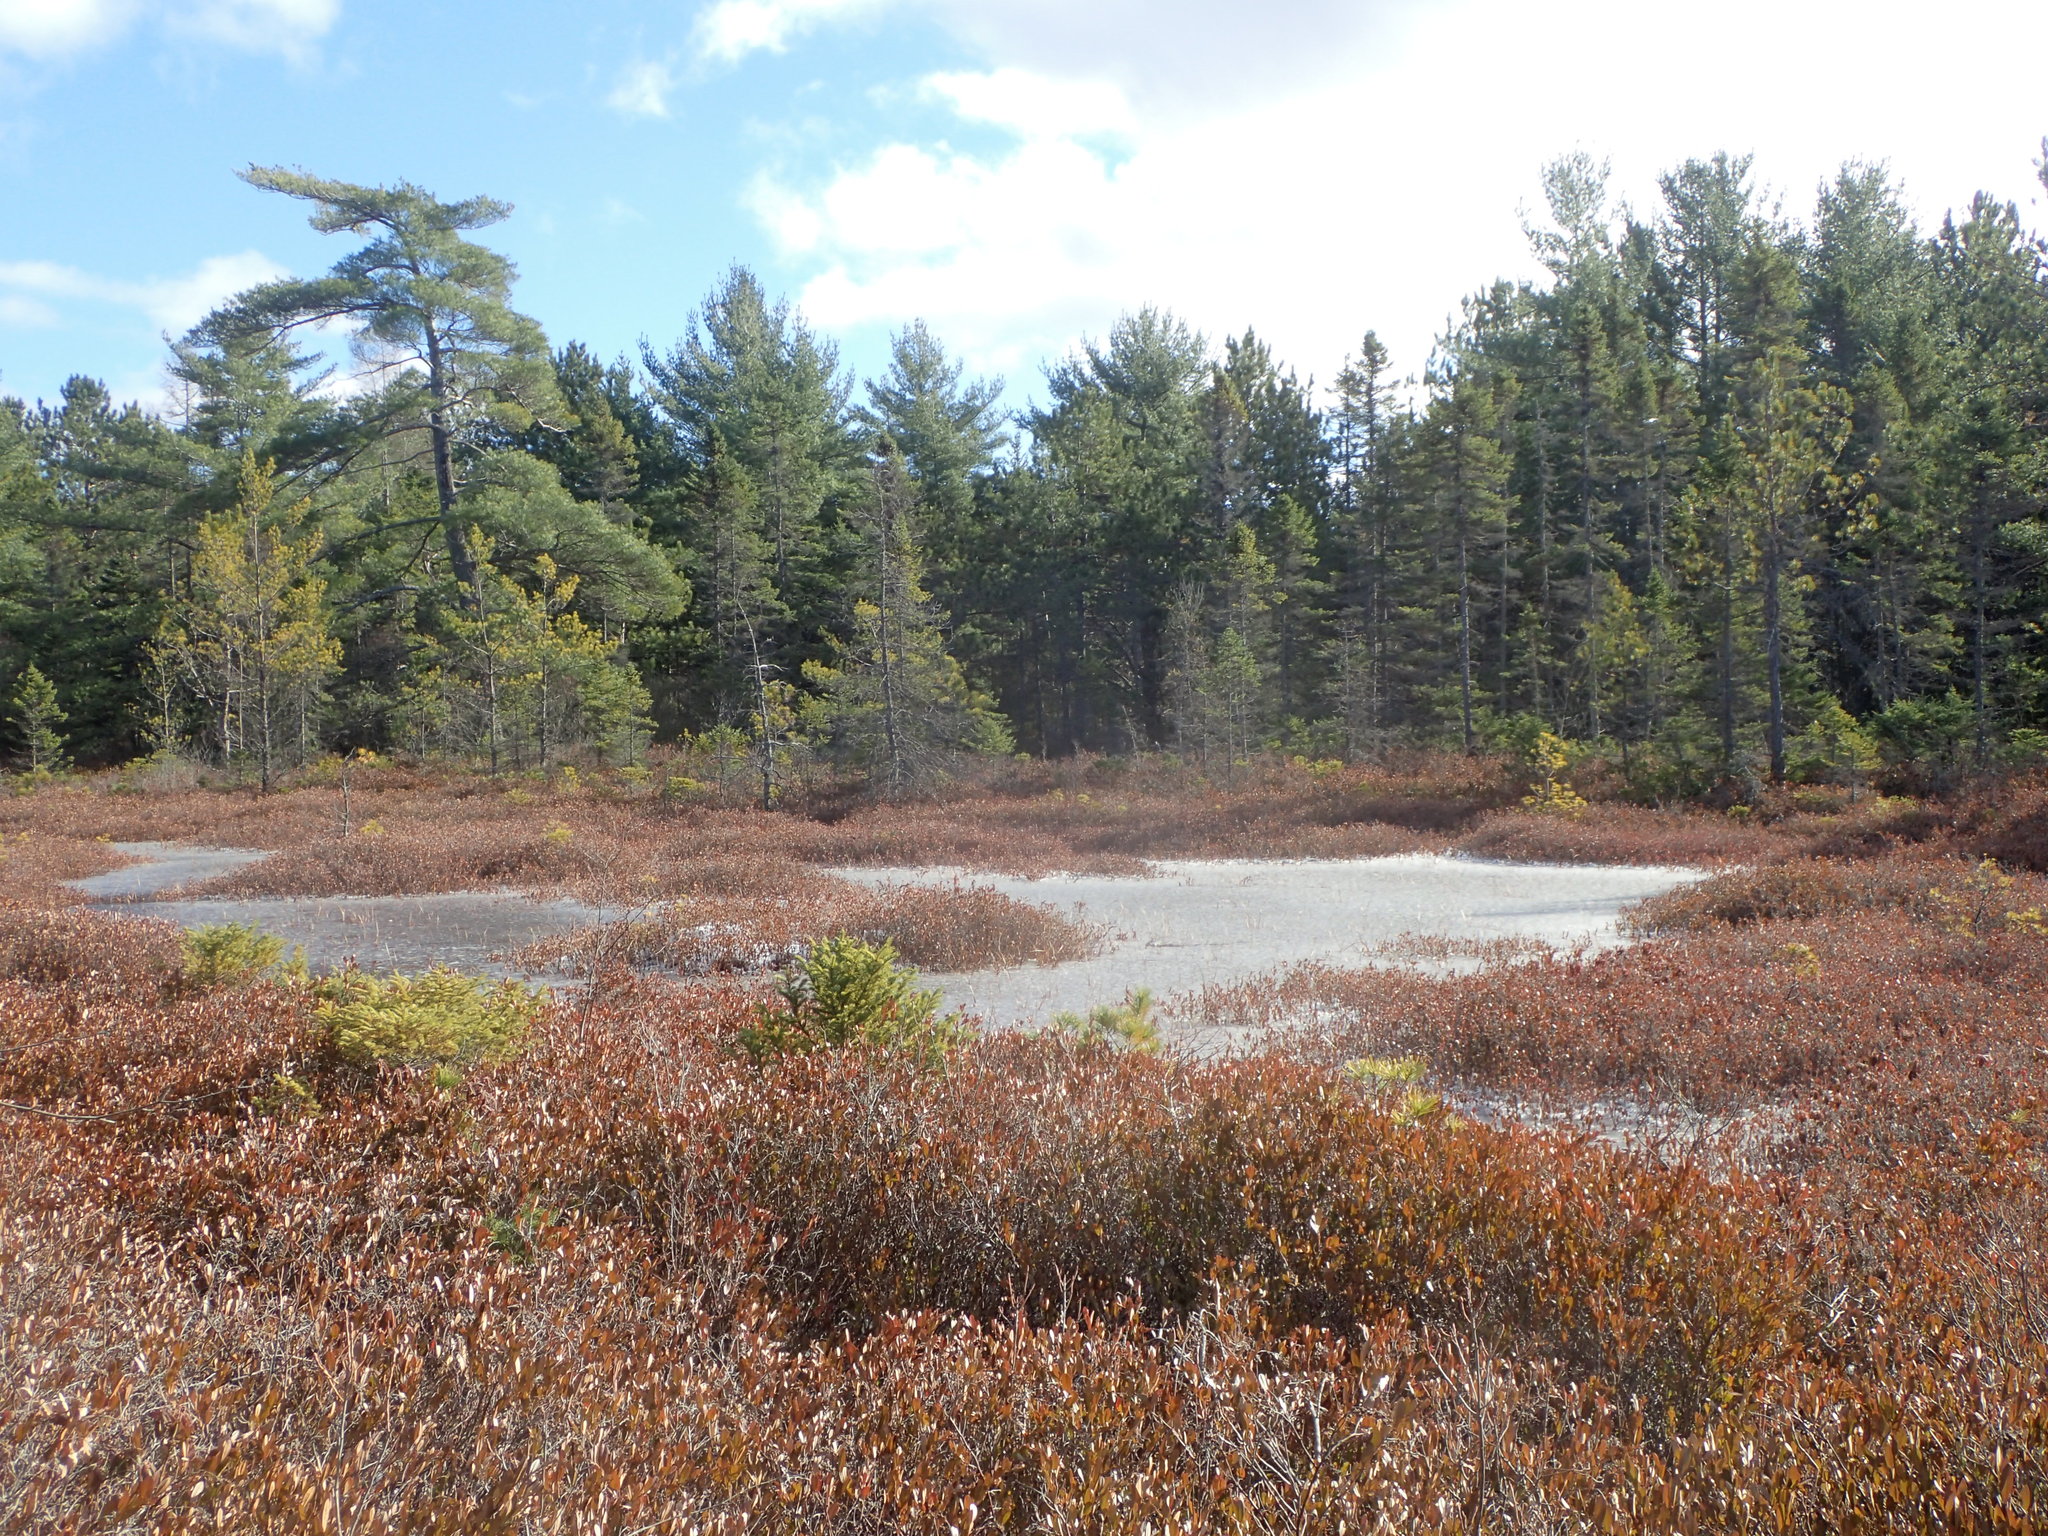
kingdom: Plantae
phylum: Tracheophyta
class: Magnoliopsida
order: Ericales
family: Ericaceae
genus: Chamaedaphne
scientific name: Chamaedaphne calyculata
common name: Leatherleaf
